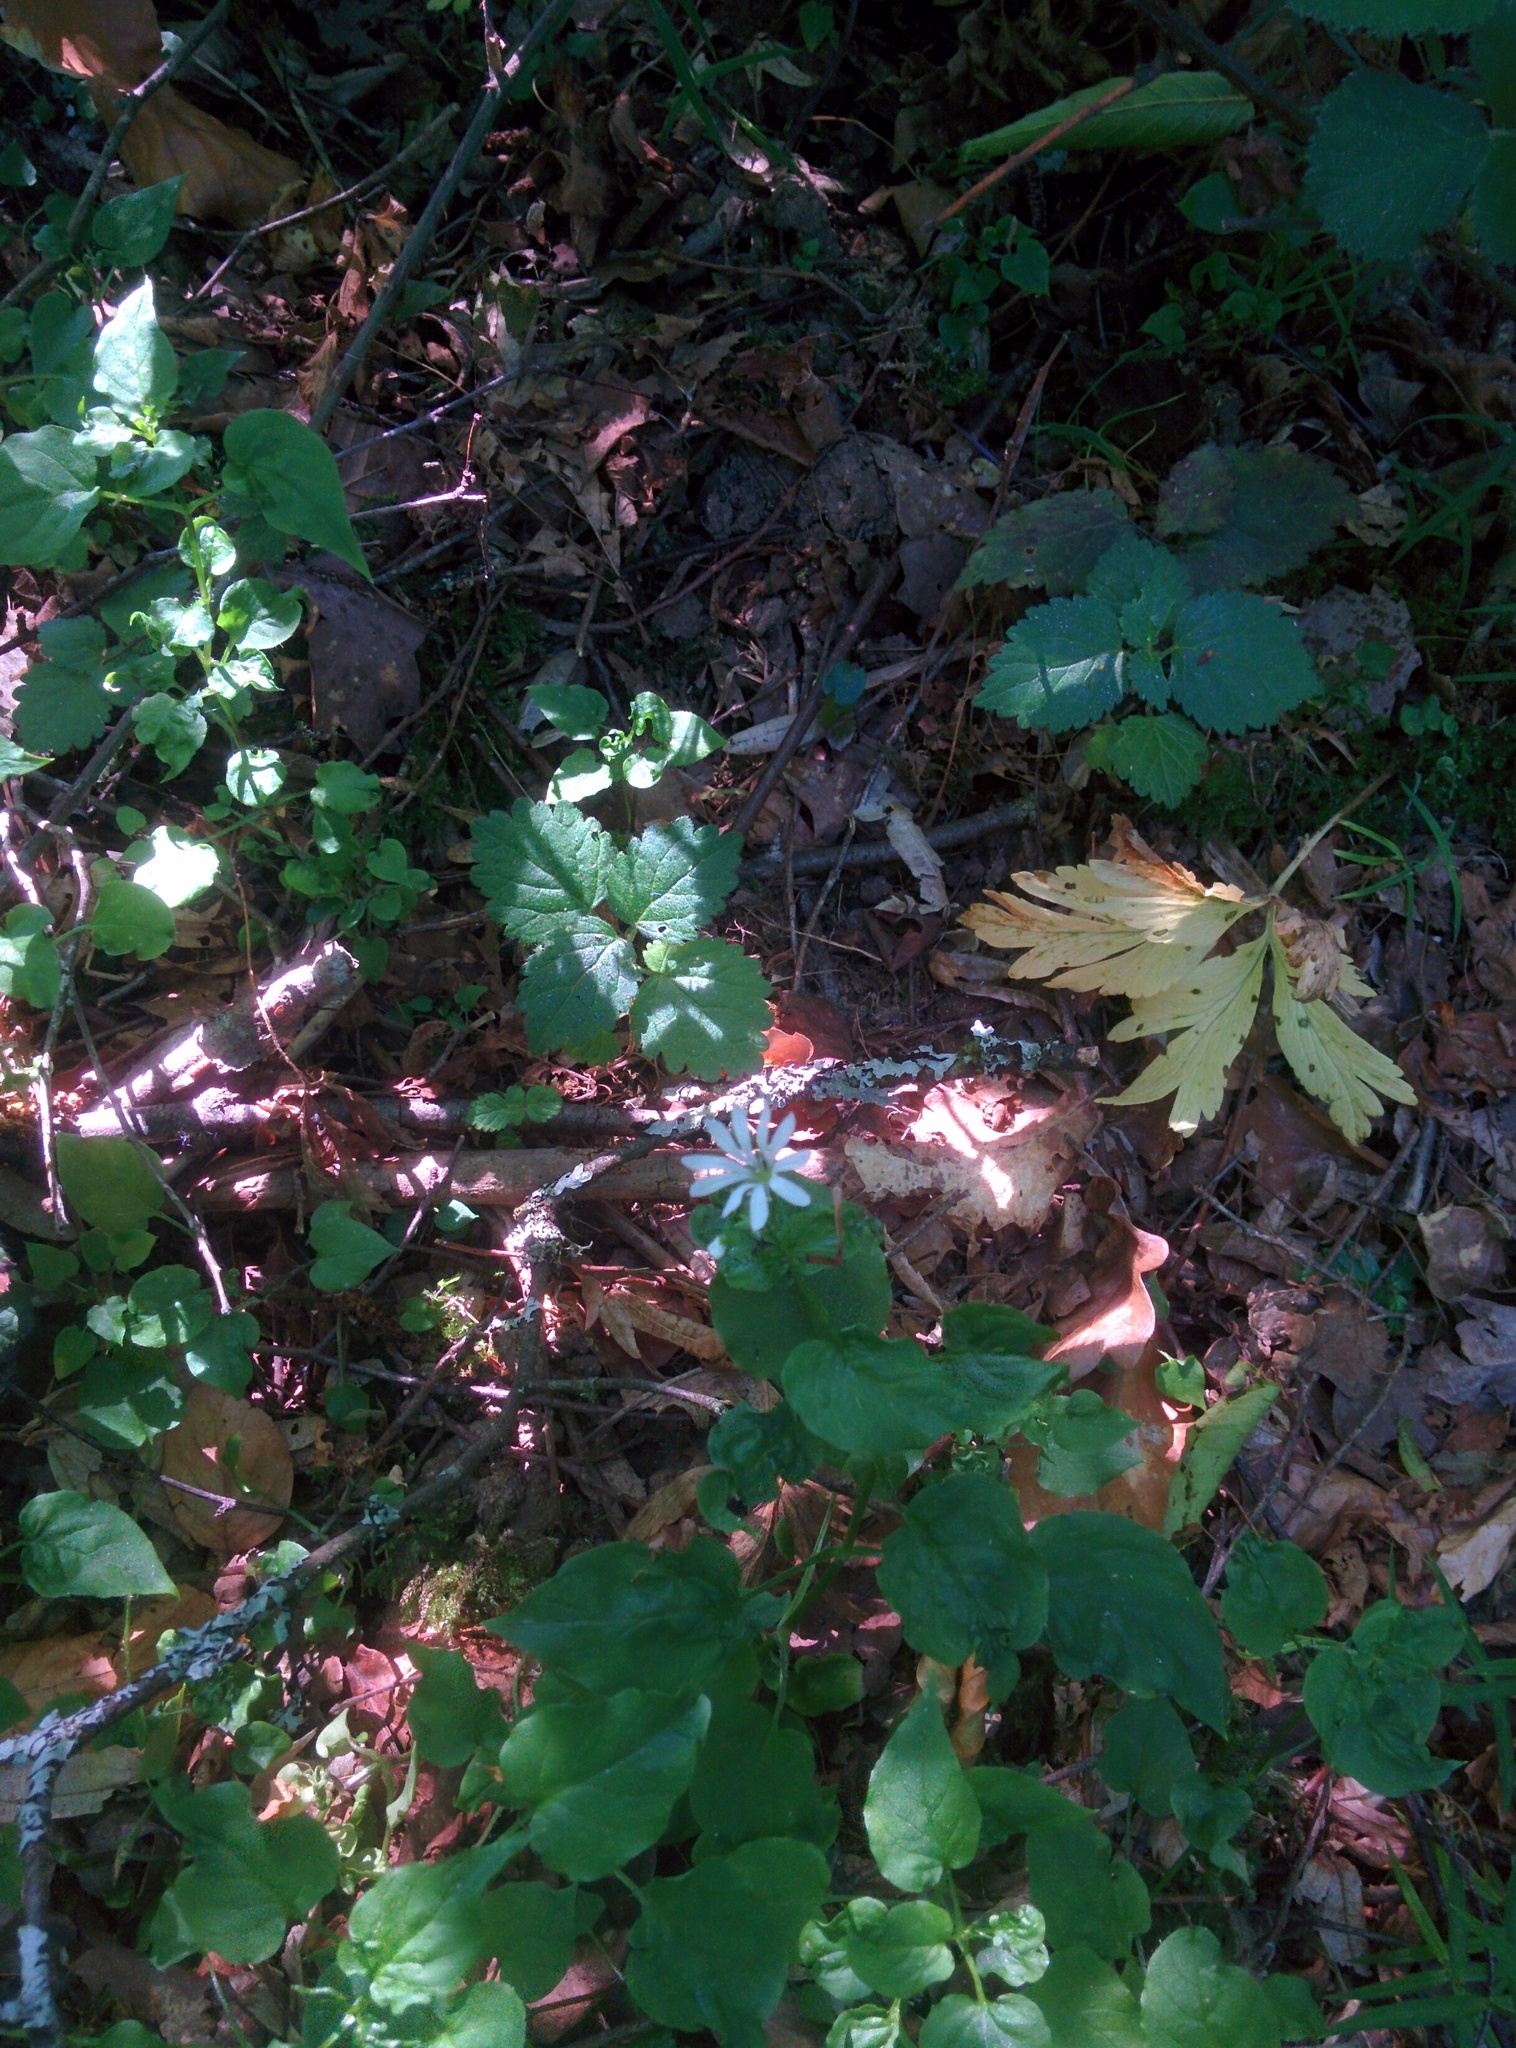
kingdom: Plantae
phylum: Tracheophyta
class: Magnoliopsida
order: Caryophyllales
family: Caryophyllaceae
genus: Stellaria
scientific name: Stellaria nemorum
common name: Wood stitchwort
